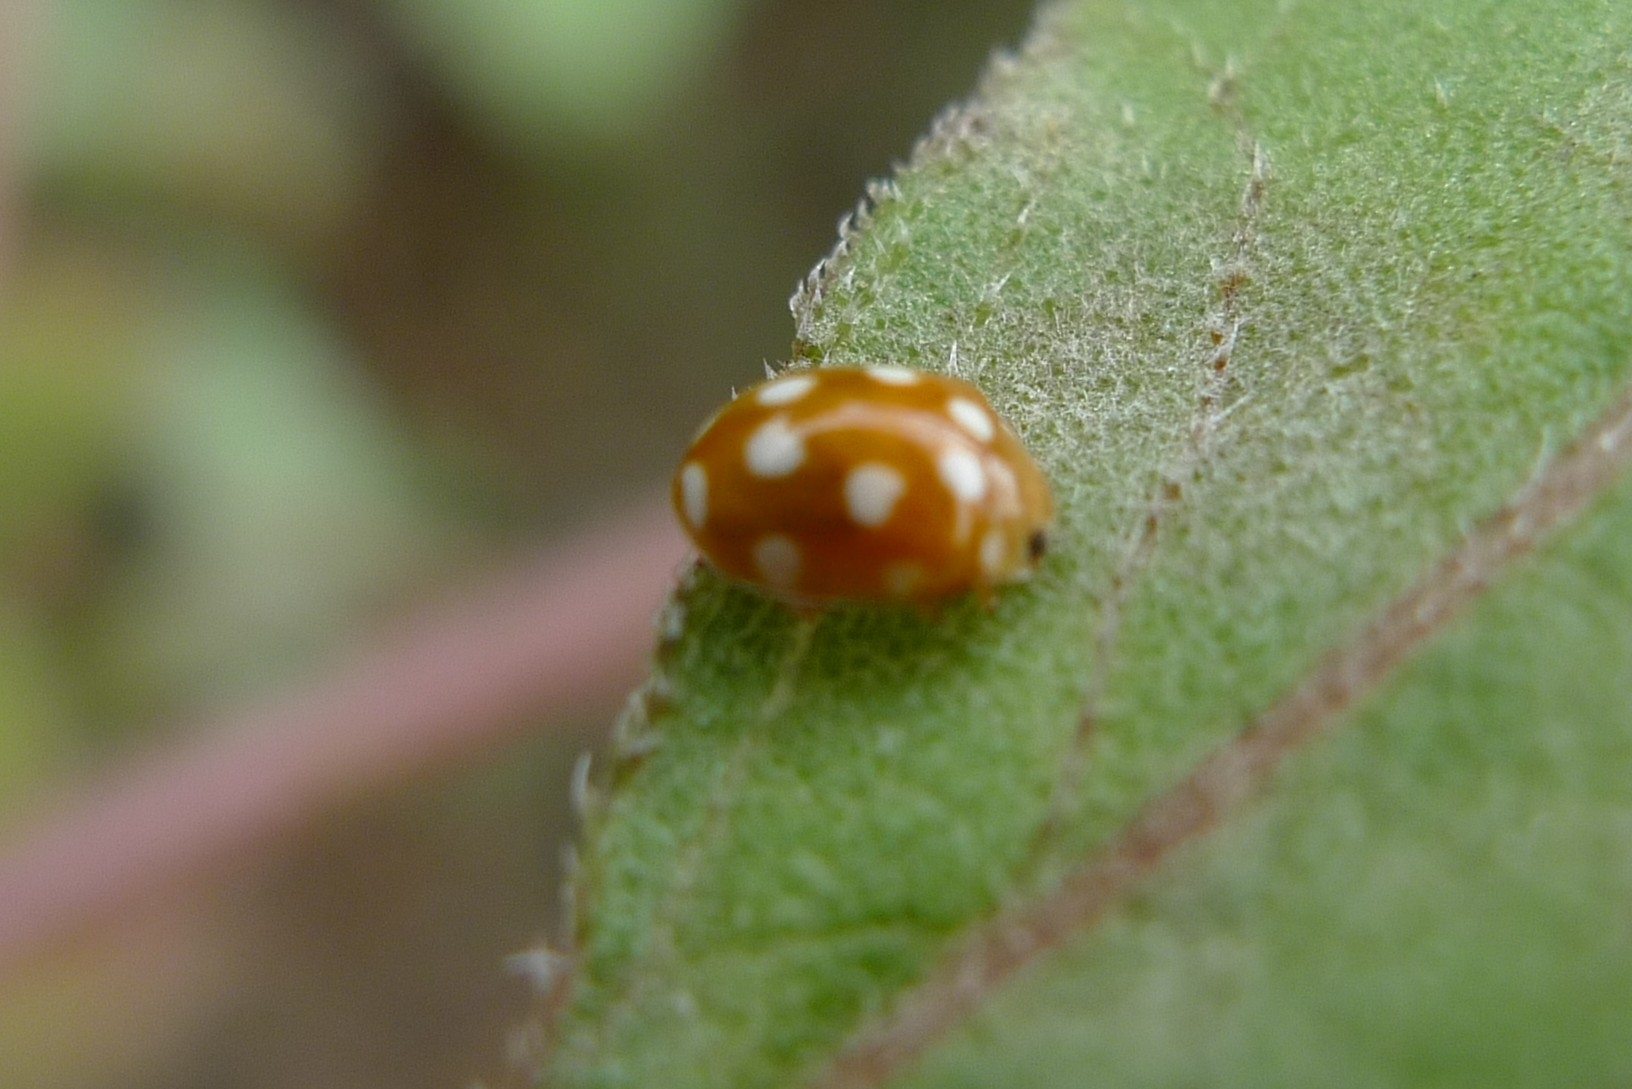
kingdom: Animalia
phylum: Arthropoda
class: Insecta
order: Coleoptera
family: Coccinellidae
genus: Vibidia
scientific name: Vibidia duodecimguttata
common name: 12-spot ladybird
